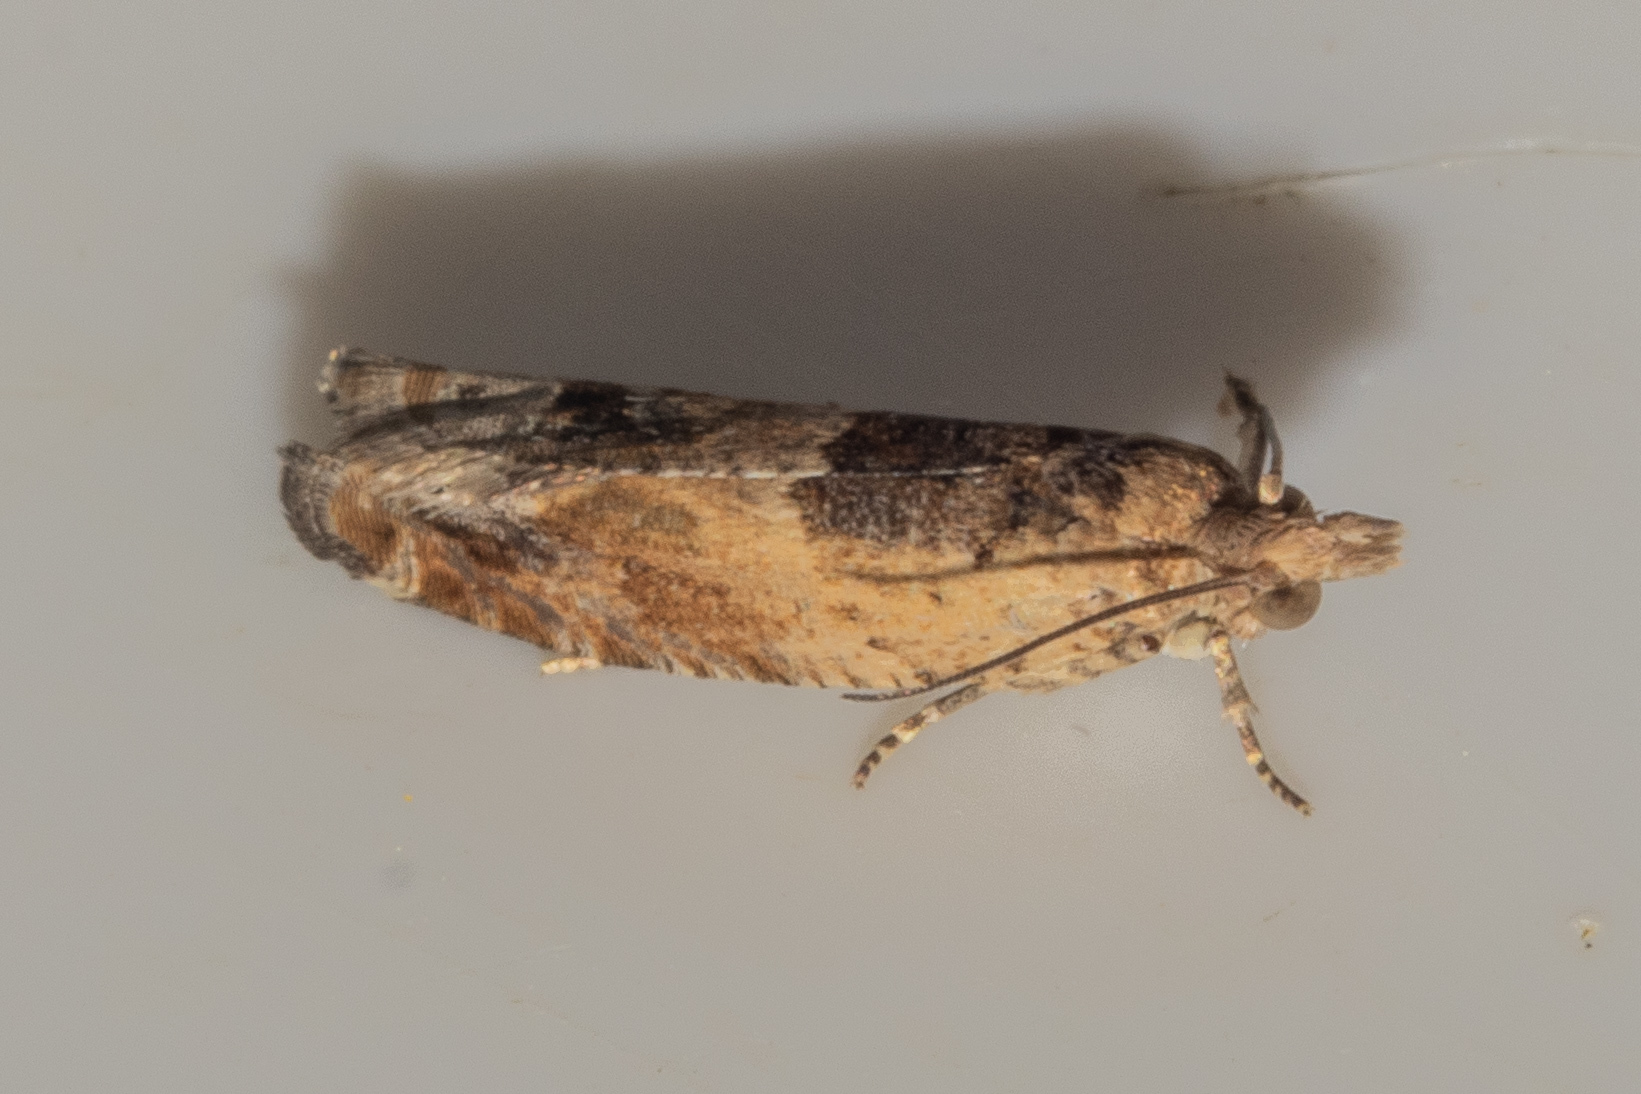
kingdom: Animalia
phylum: Arthropoda
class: Insecta
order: Lepidoptera
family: Tortricidae
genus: Crocidosema
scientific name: Crocidosema plebejana
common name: Southern bell
